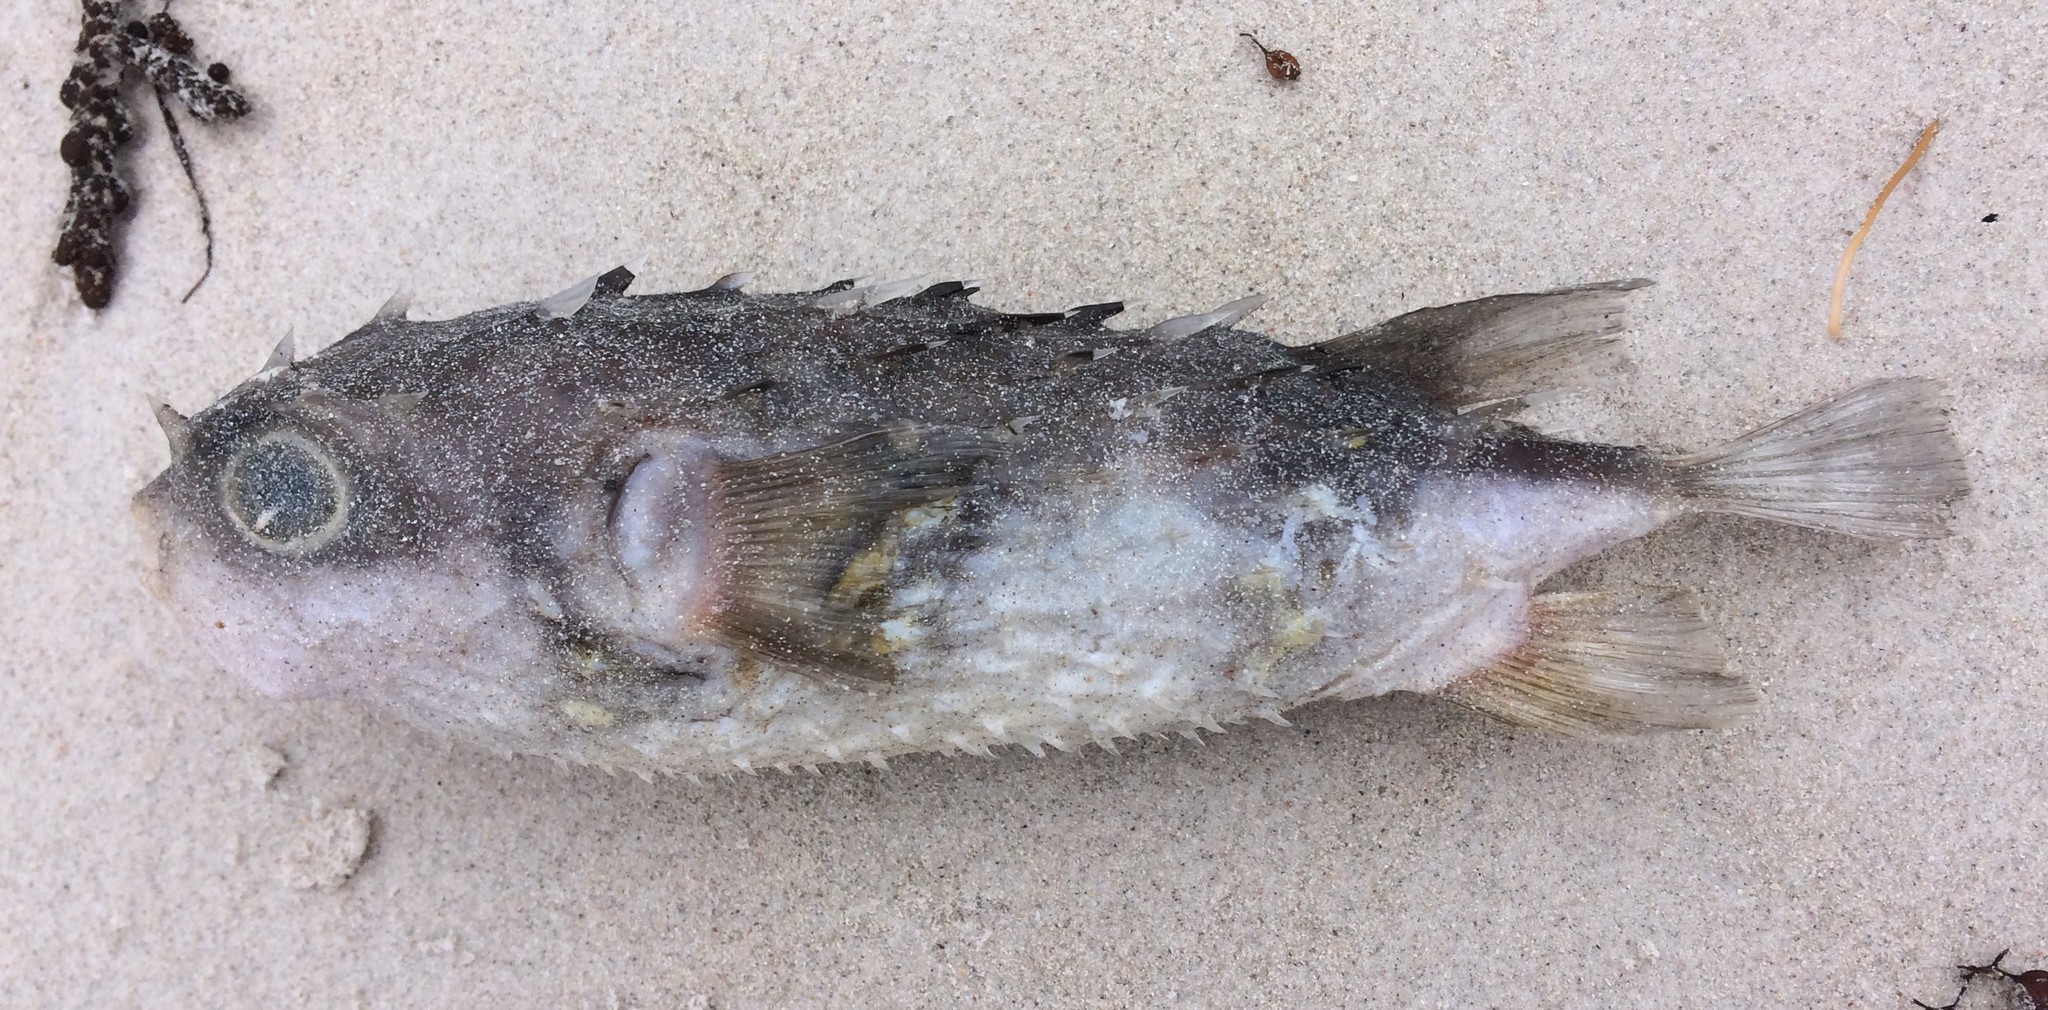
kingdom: Animalia
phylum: Chordata
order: Tetraodontiformes
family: Diodontidae
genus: Allomycterus
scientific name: Allomycterus pilatus
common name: No common name
